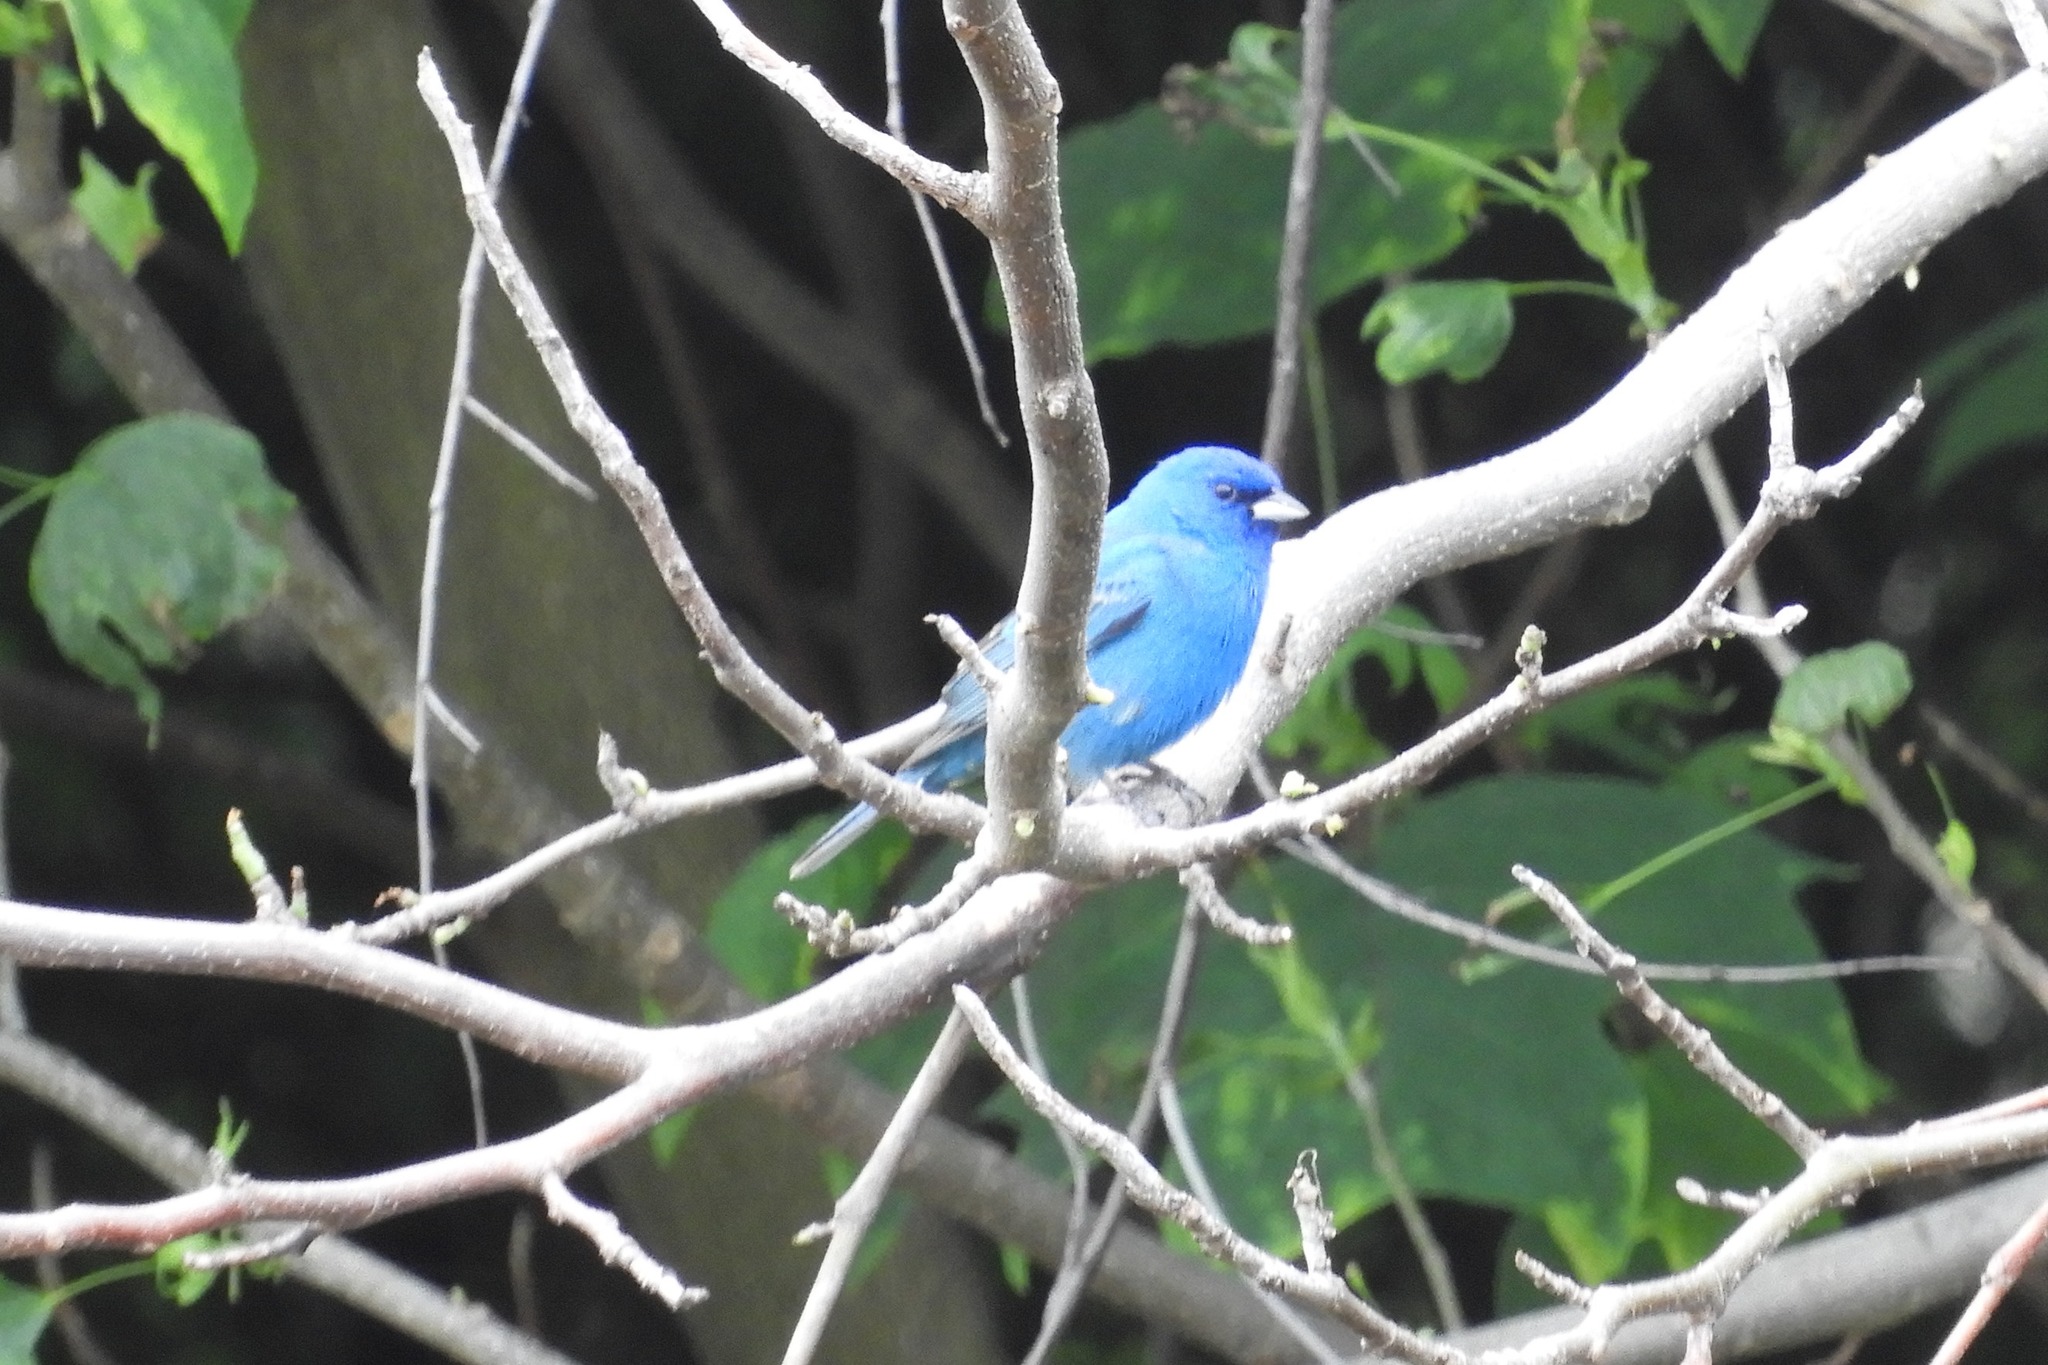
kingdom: Animalia
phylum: Chordata
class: Aves
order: Passeriformes
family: Cardinalidae
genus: Passerina
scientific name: Passerina cyanea
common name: Indigo bunting
